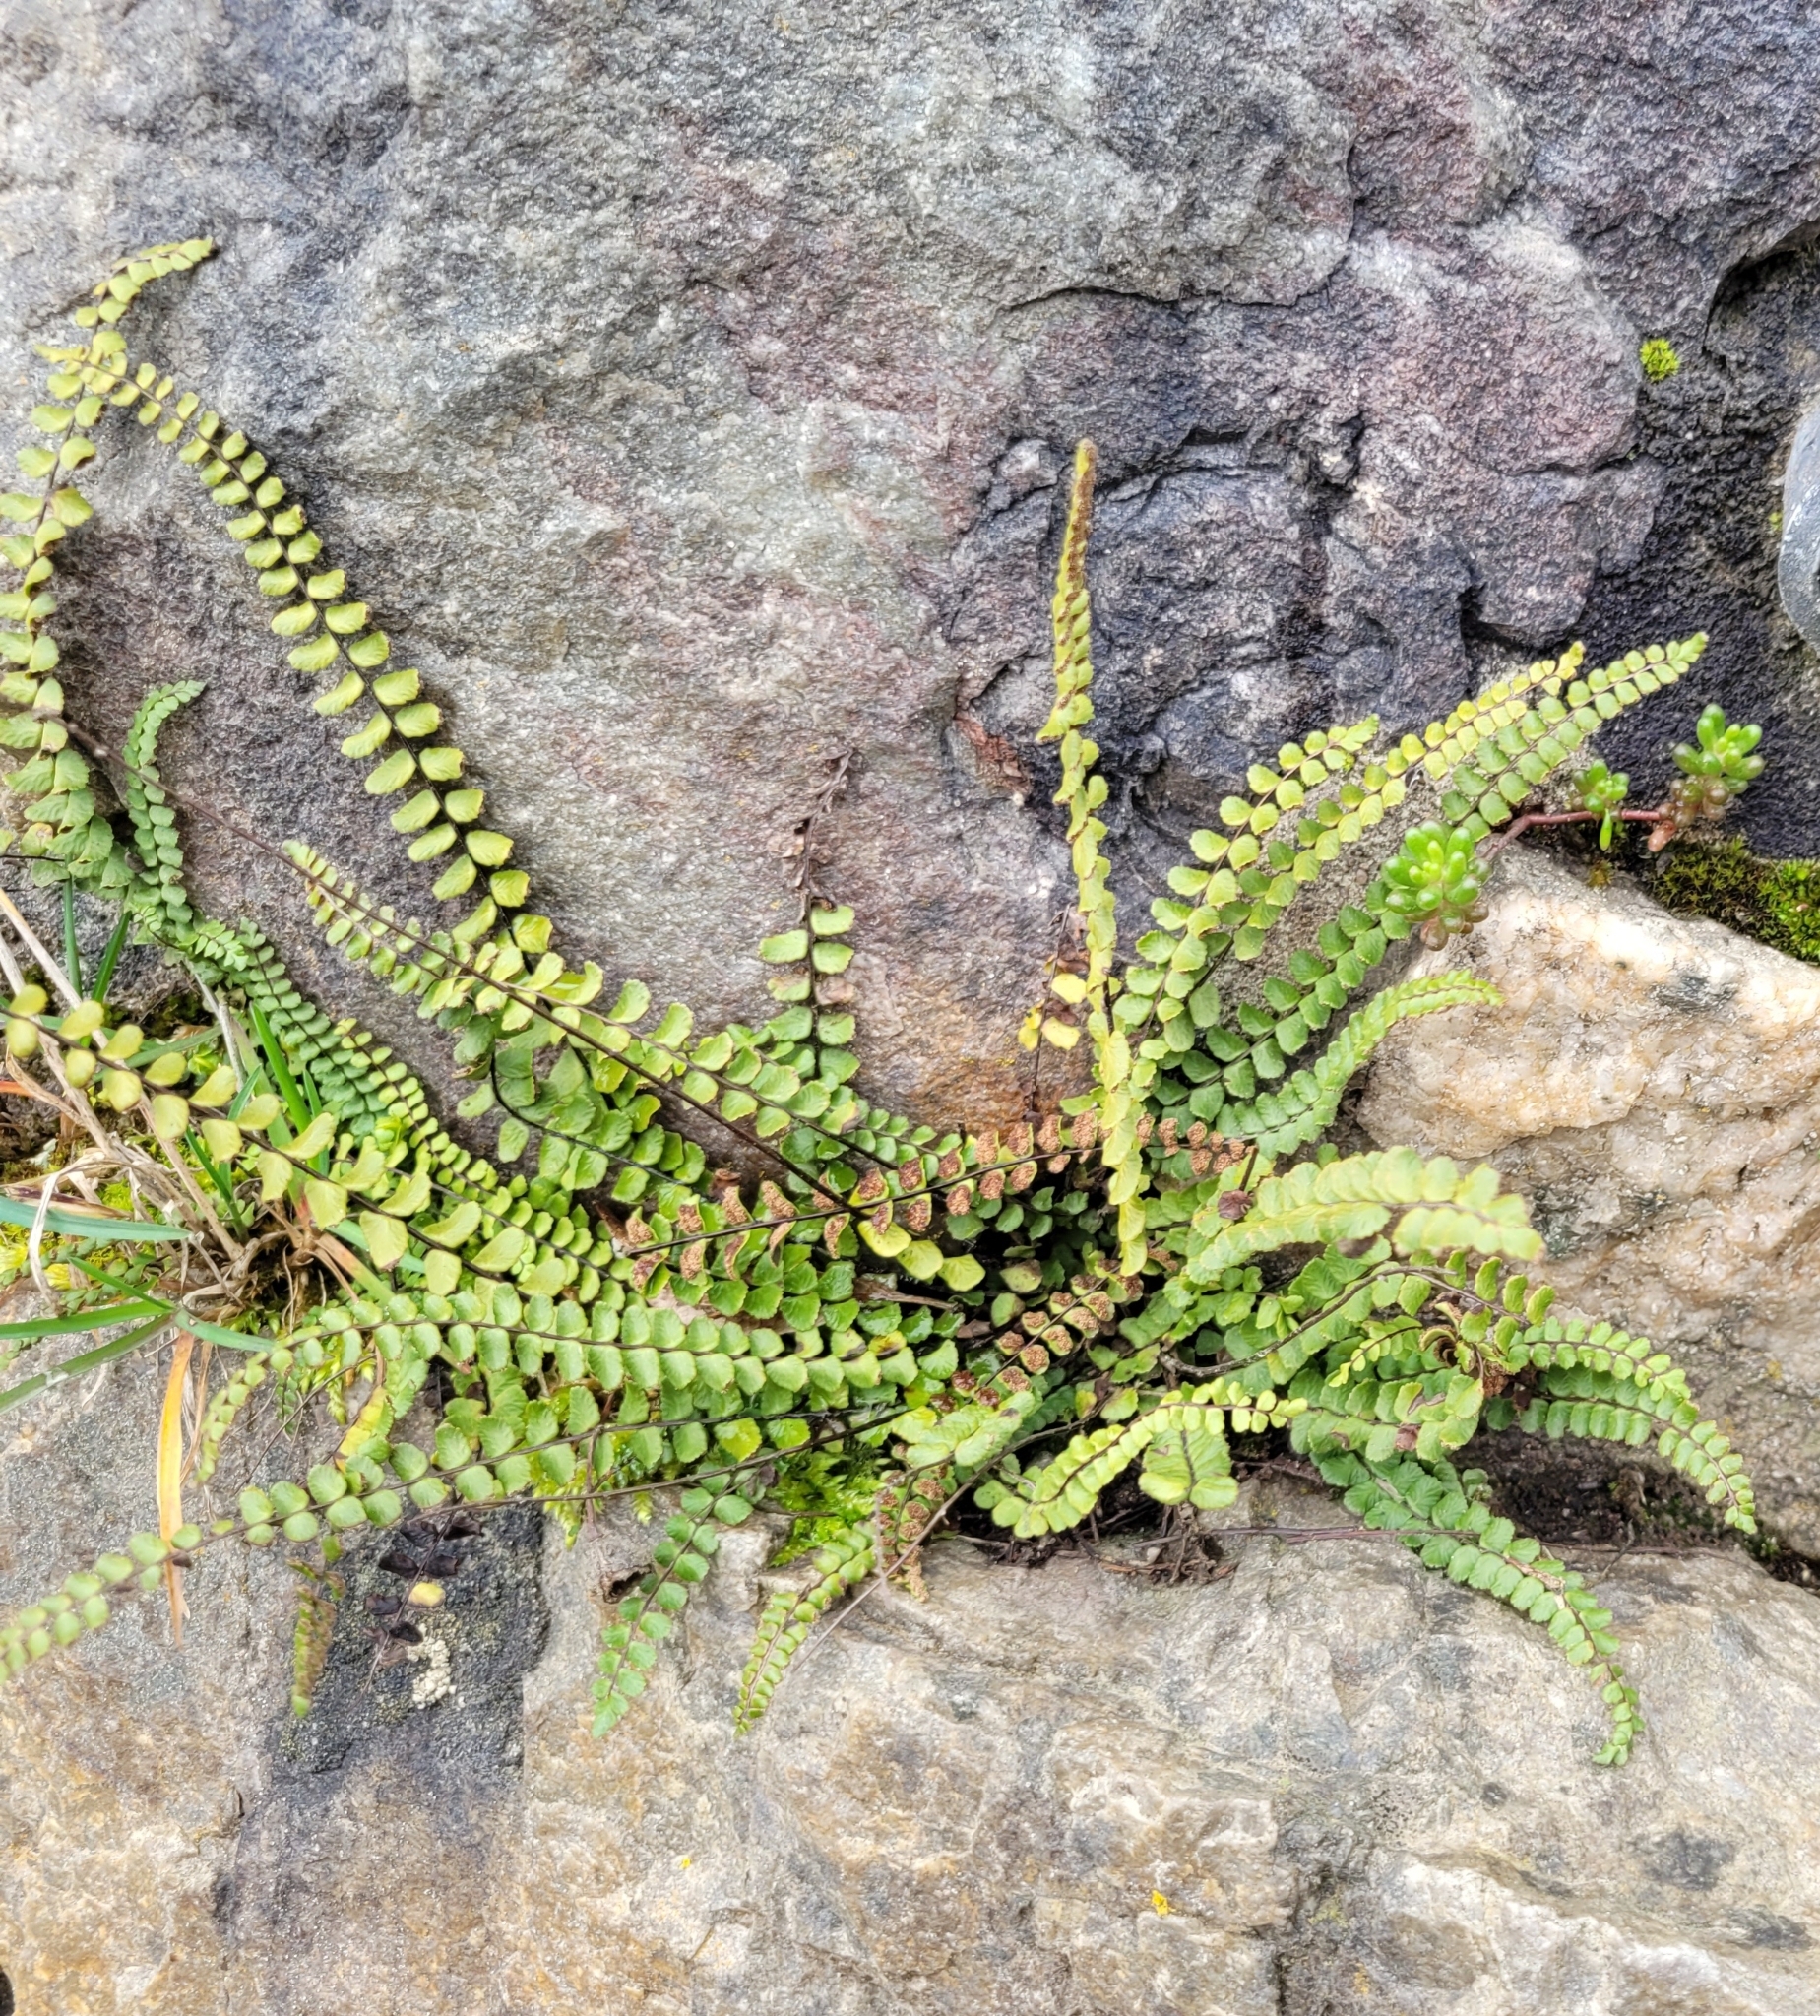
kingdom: Plantae
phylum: Tracheophyta
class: Polypodiopsida
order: Polypodiales
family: Aspleniaceae
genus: Asplenium
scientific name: Asplenium trichomanes
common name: Maidenhair spleenwort
